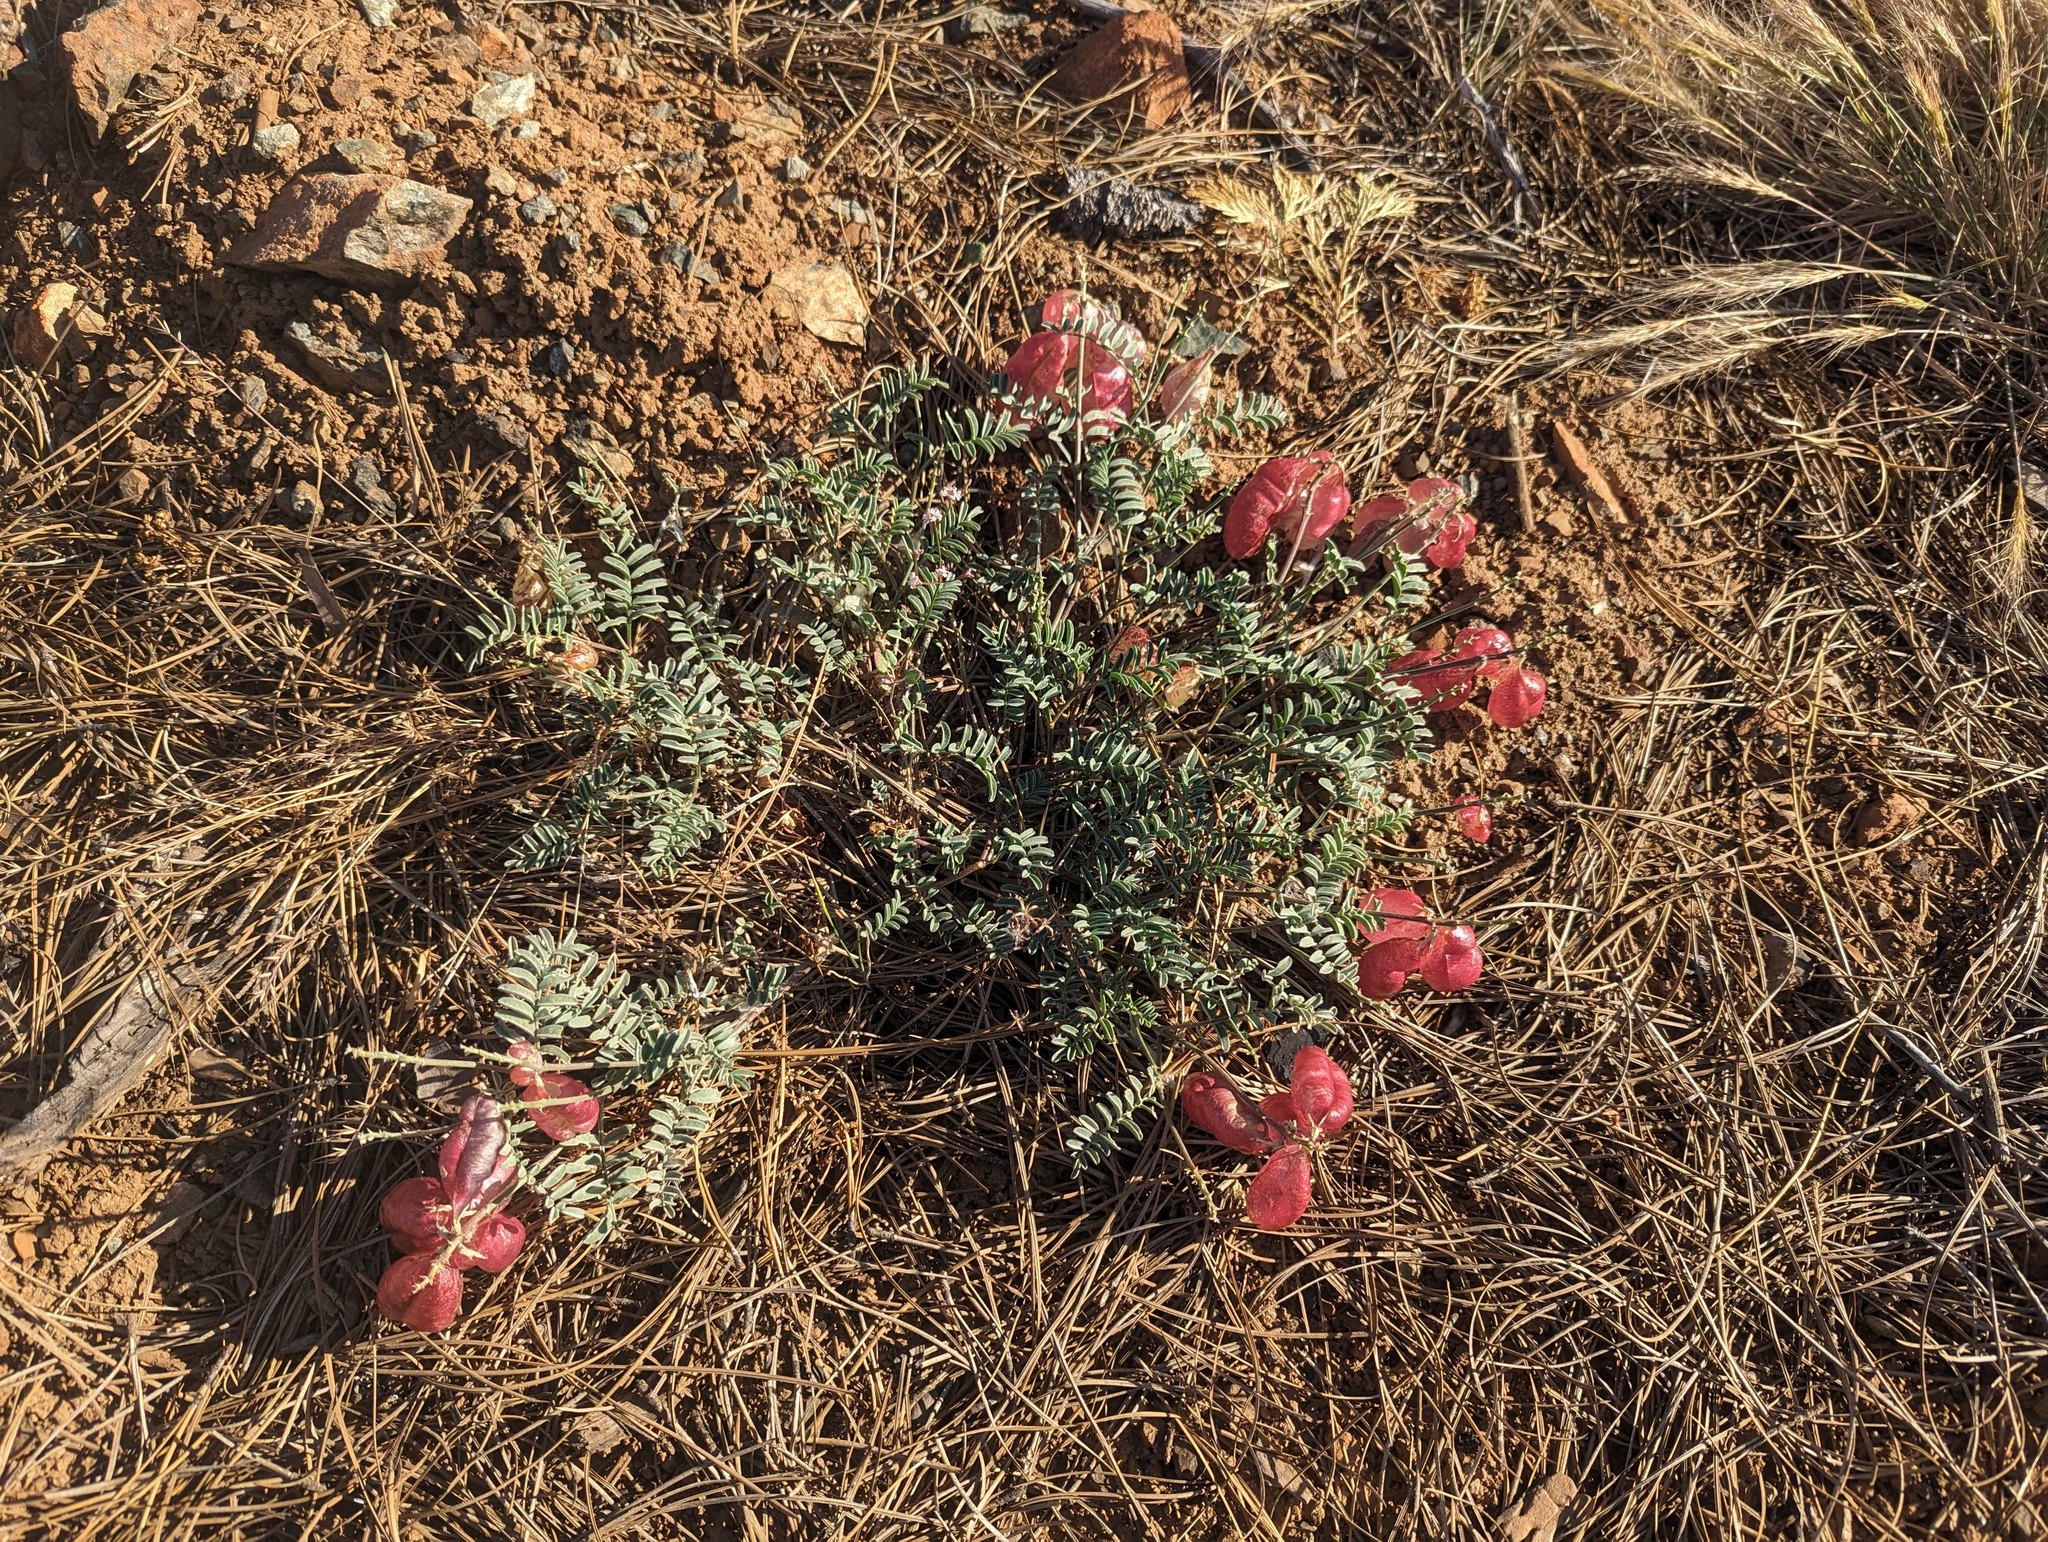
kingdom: Plantae
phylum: Tracheophyta
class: Magnoliopsida
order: Fabales
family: Fabaceae
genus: Astragalus
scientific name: Astragalus whitneyi
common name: Balloonpod milkvetch
